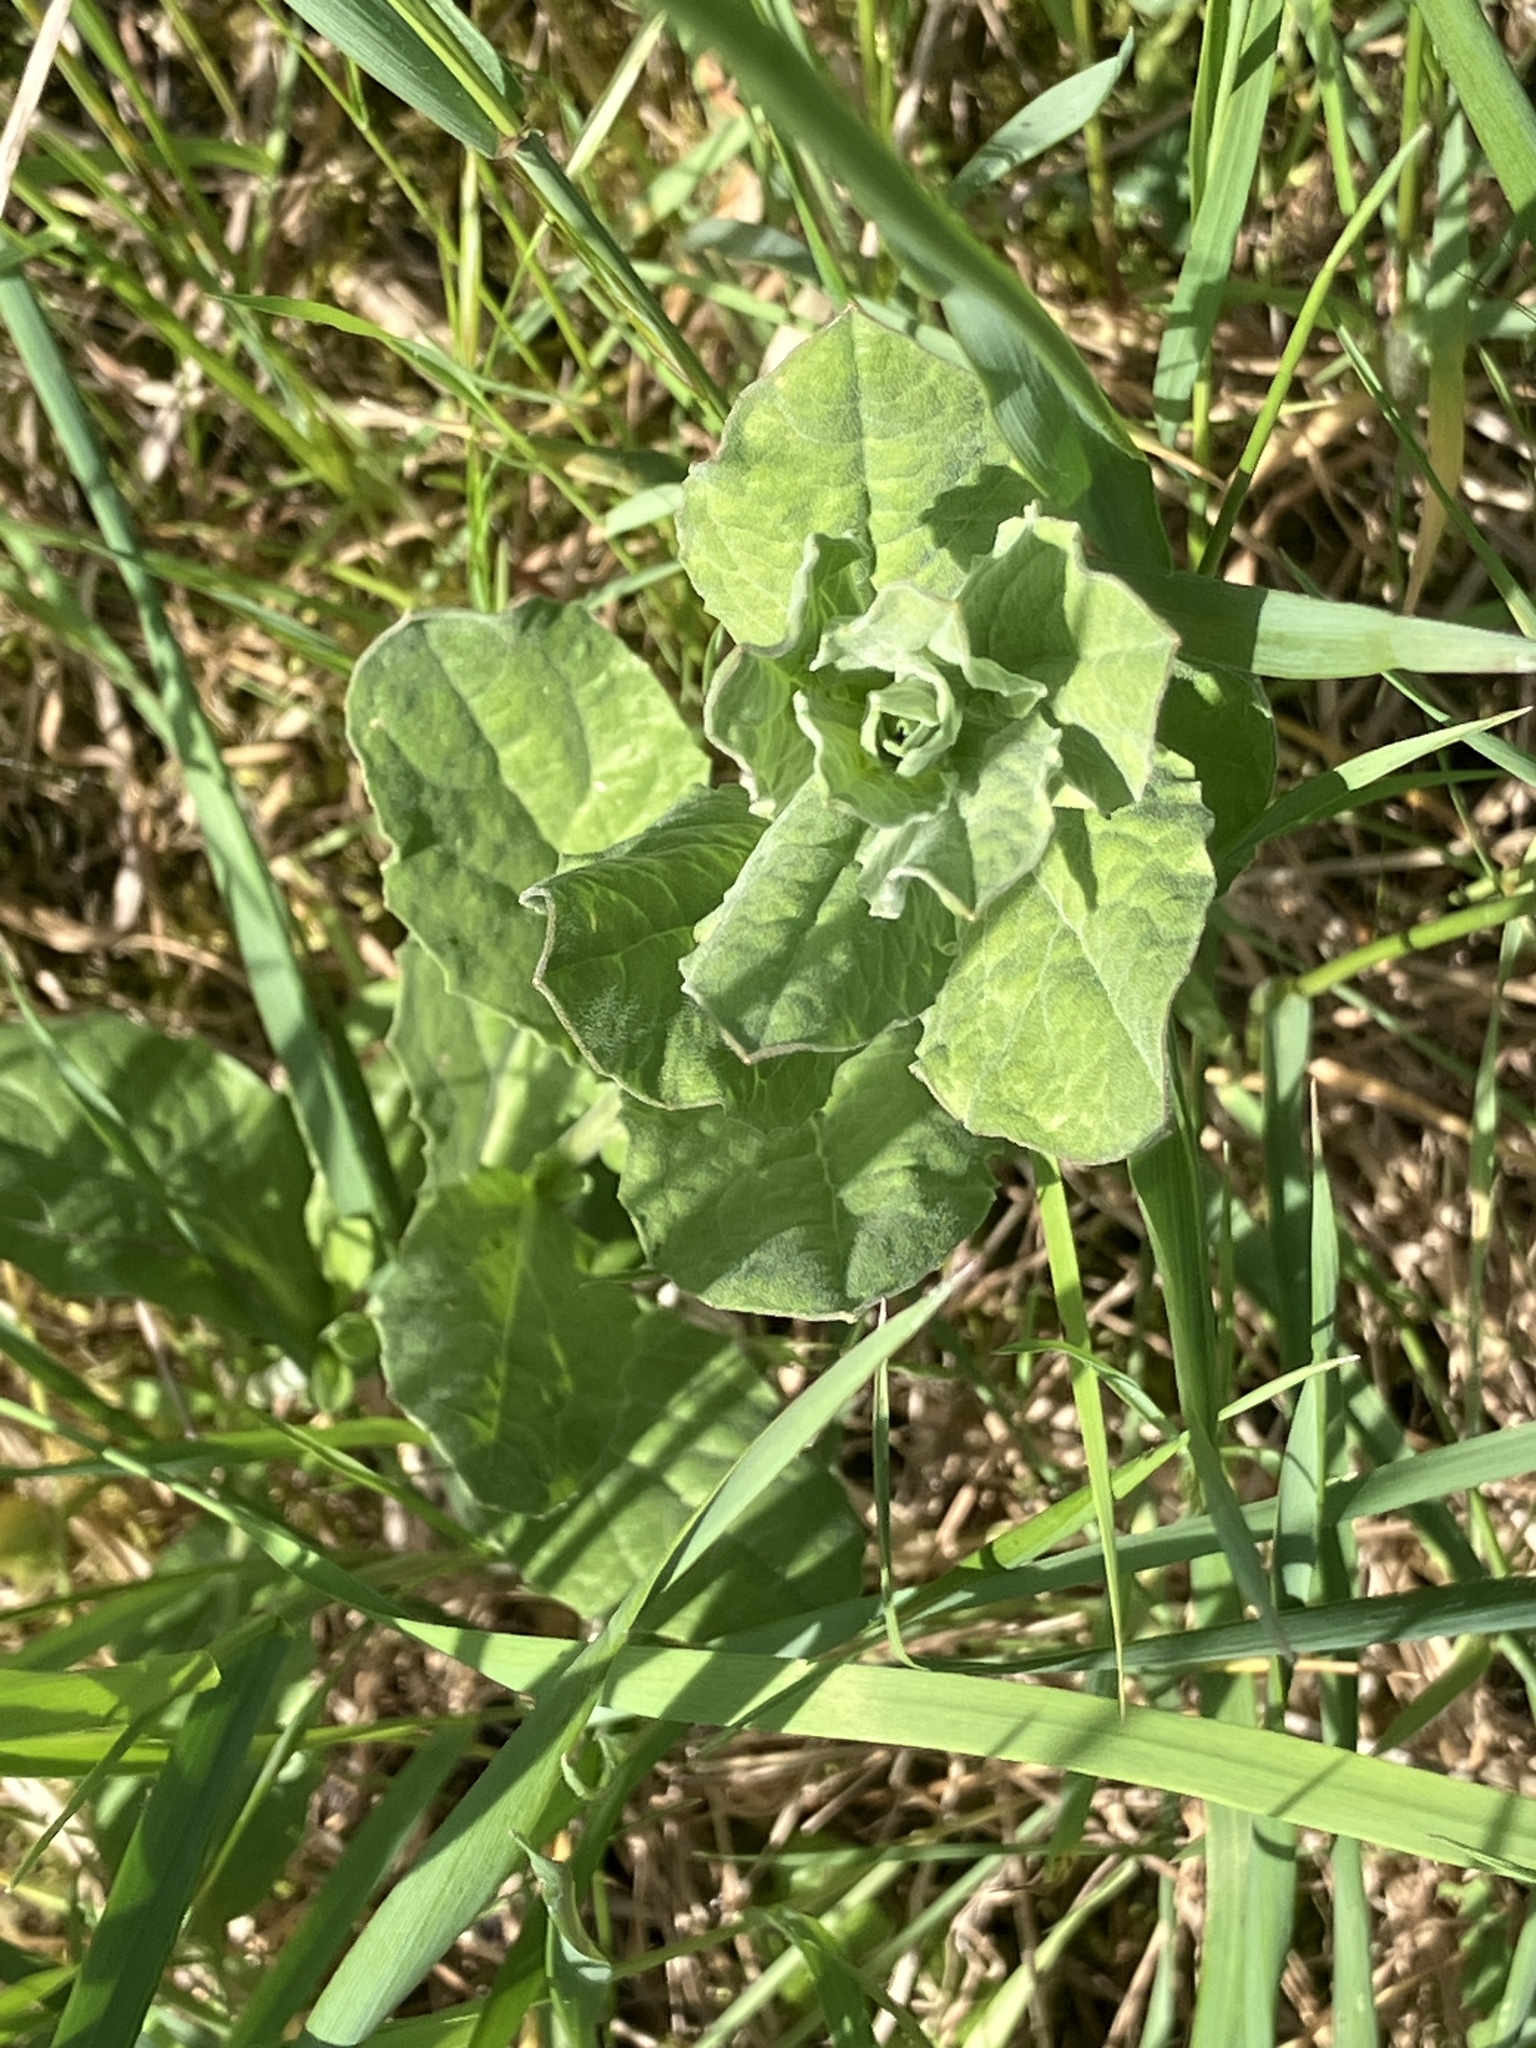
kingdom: Plantae
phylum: Tracheophyta
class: Magnoliopsida
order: Brassicales
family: Brassicaceae
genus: Lepidium
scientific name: Lepidium draba
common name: Hoary cress
